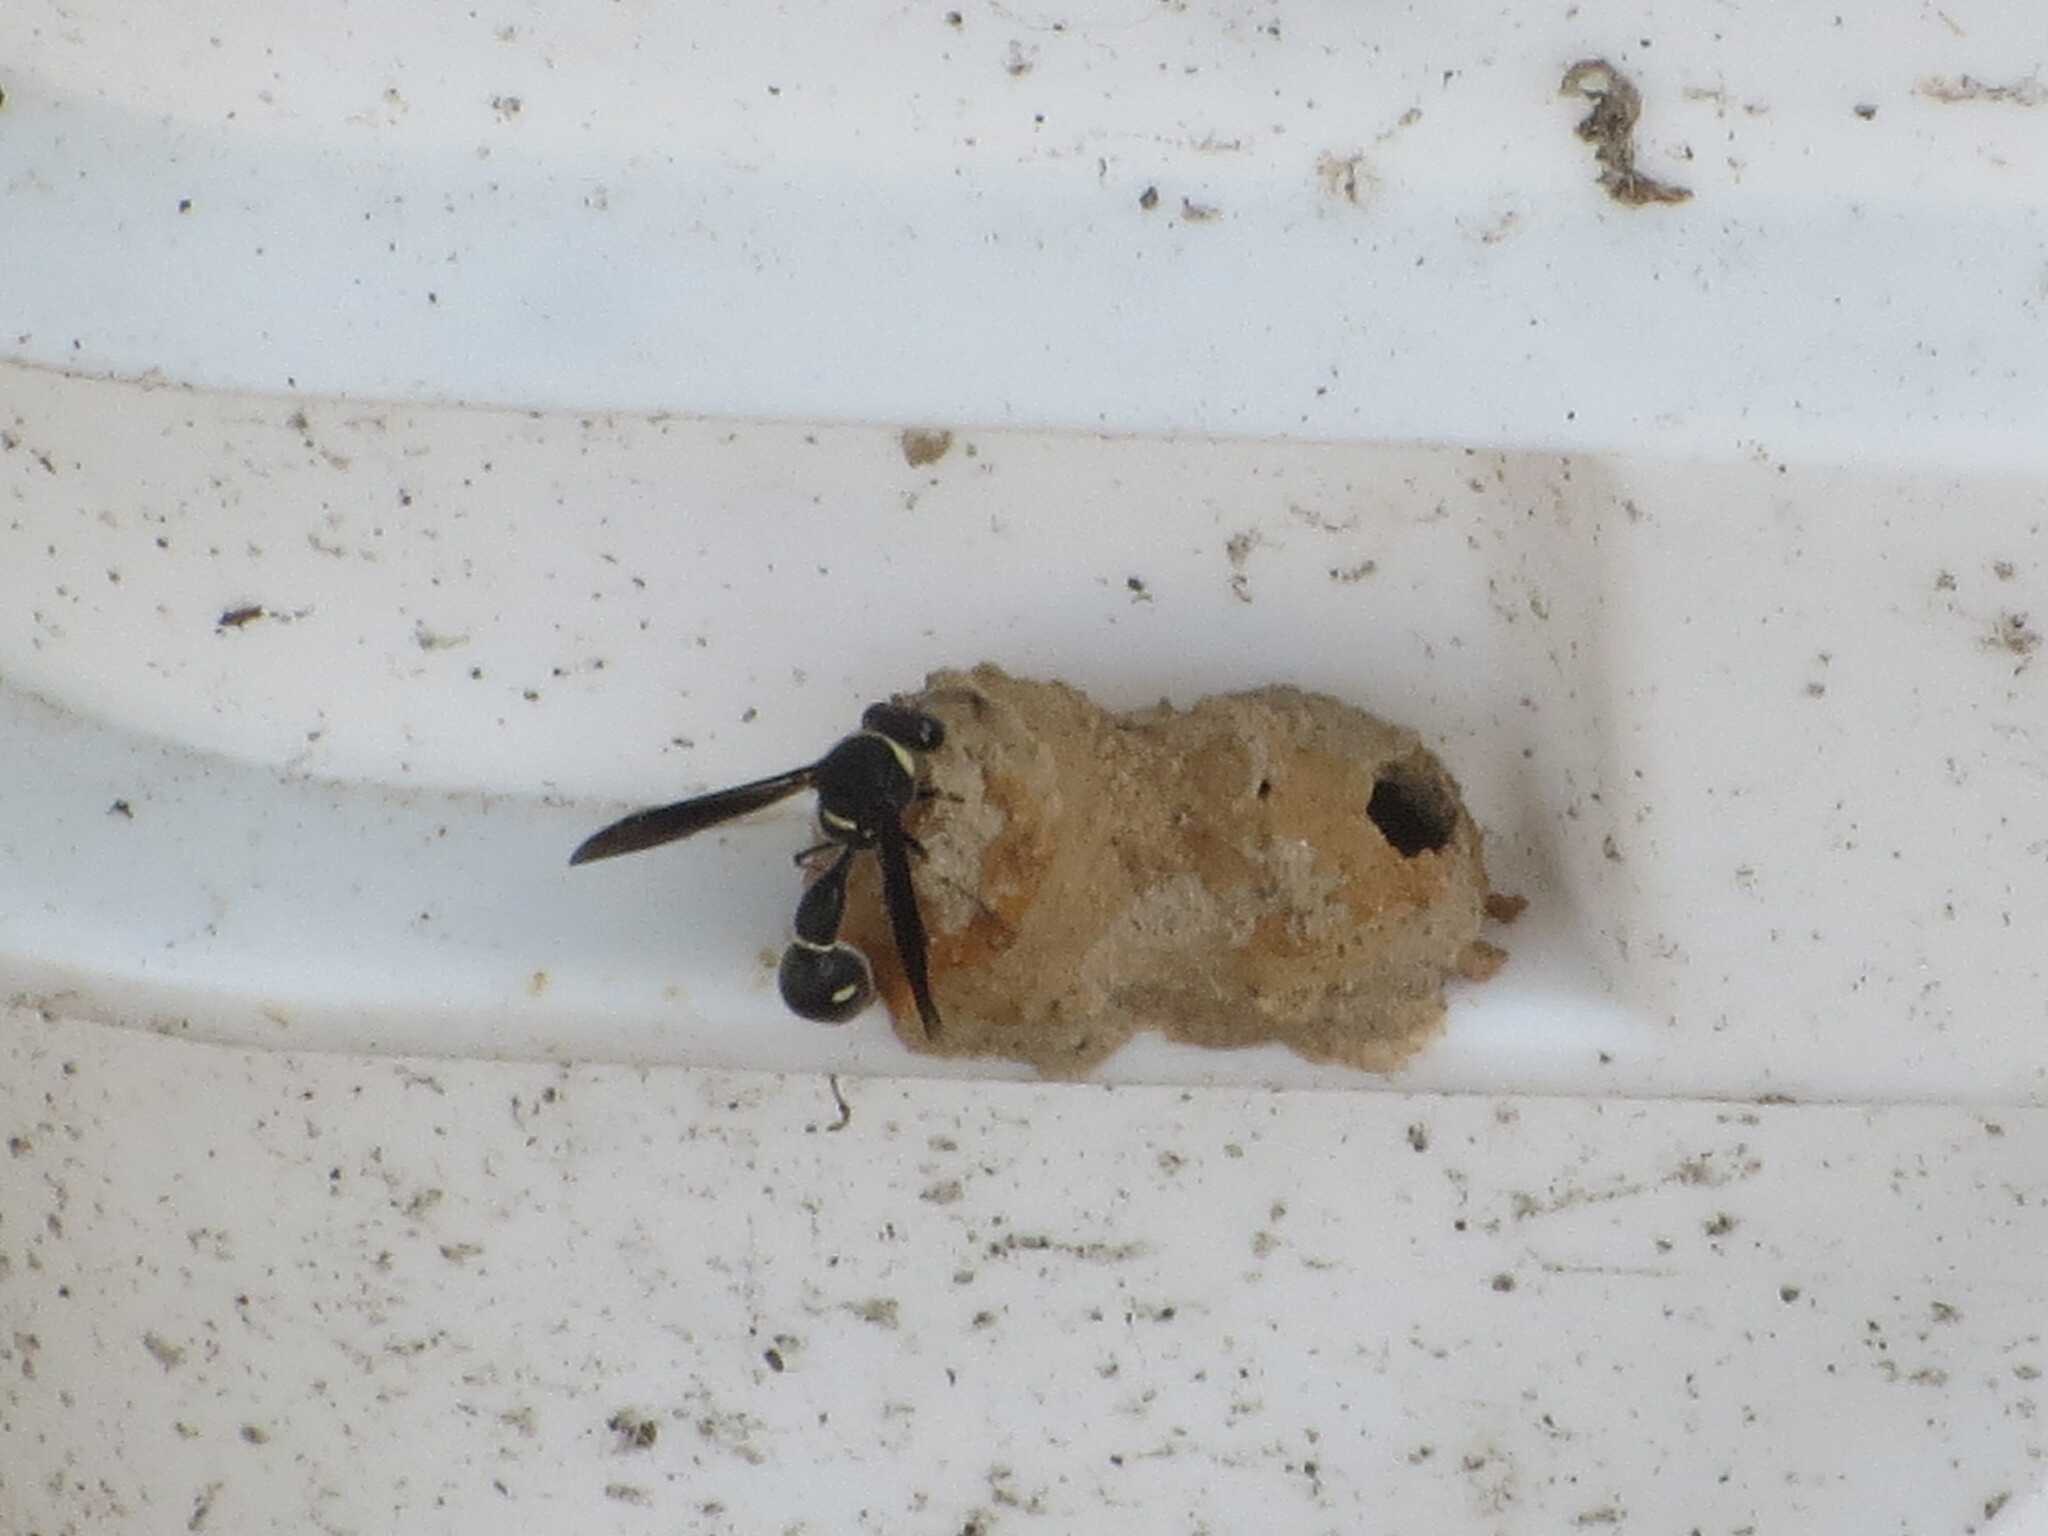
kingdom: Animalia
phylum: Arthropoda
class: Insecta
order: Hymenoptera
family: Vespidae
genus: Eumenes
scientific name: Eumenes fraternus
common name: Fraternal potter wasp
